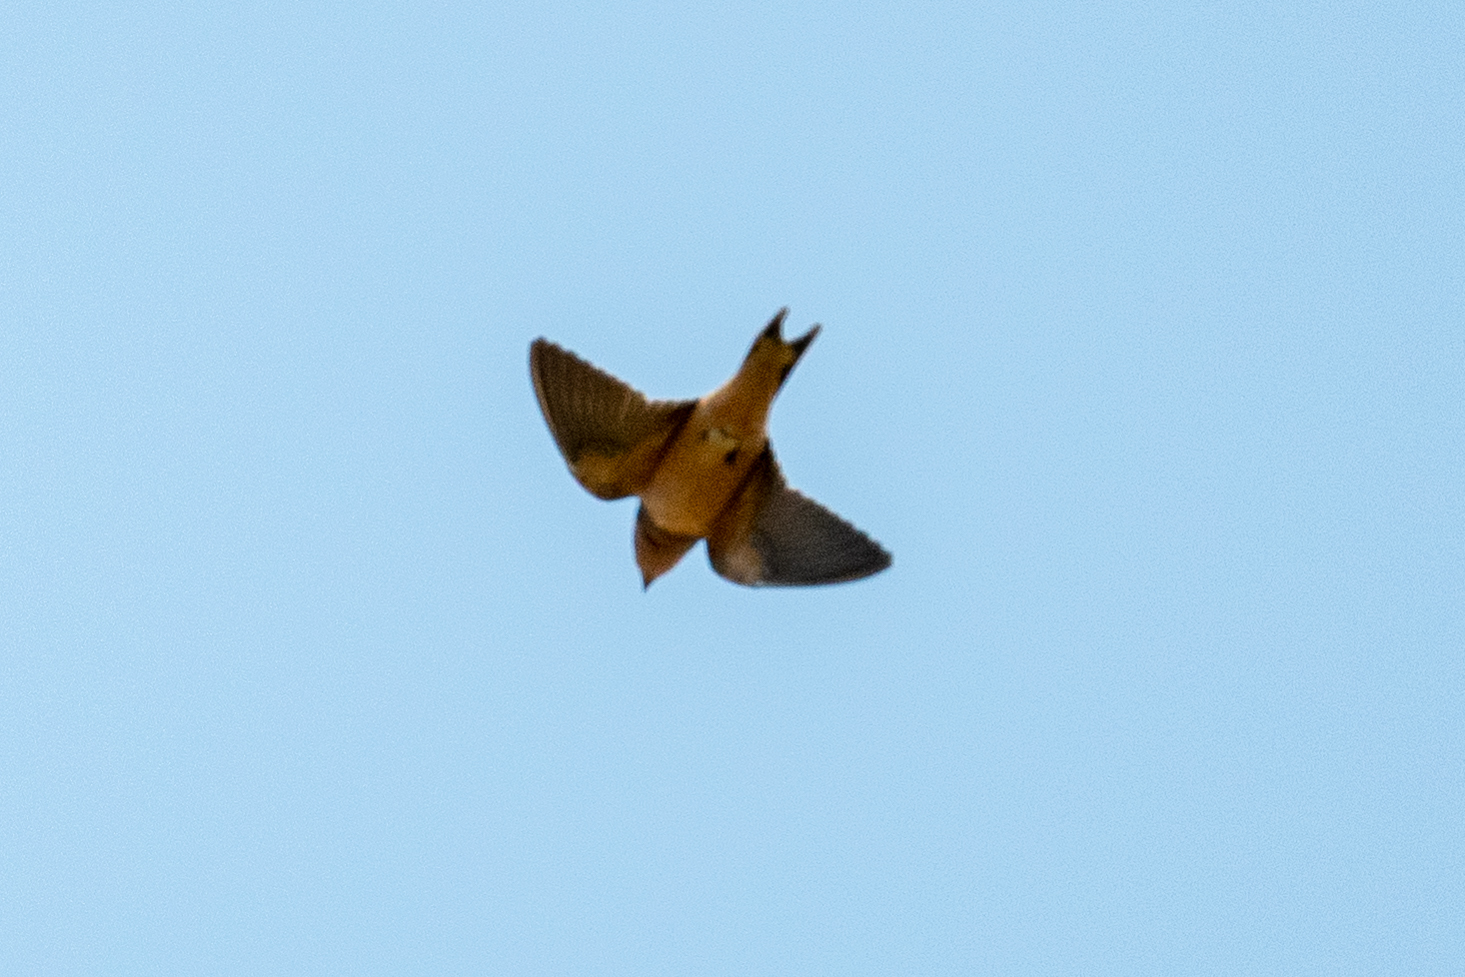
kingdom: Animalia
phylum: Chordata
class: Aves
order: Passeriformes
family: Hirundinidae
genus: Hirundo
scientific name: Hirundo rustica
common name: Barn swallow
